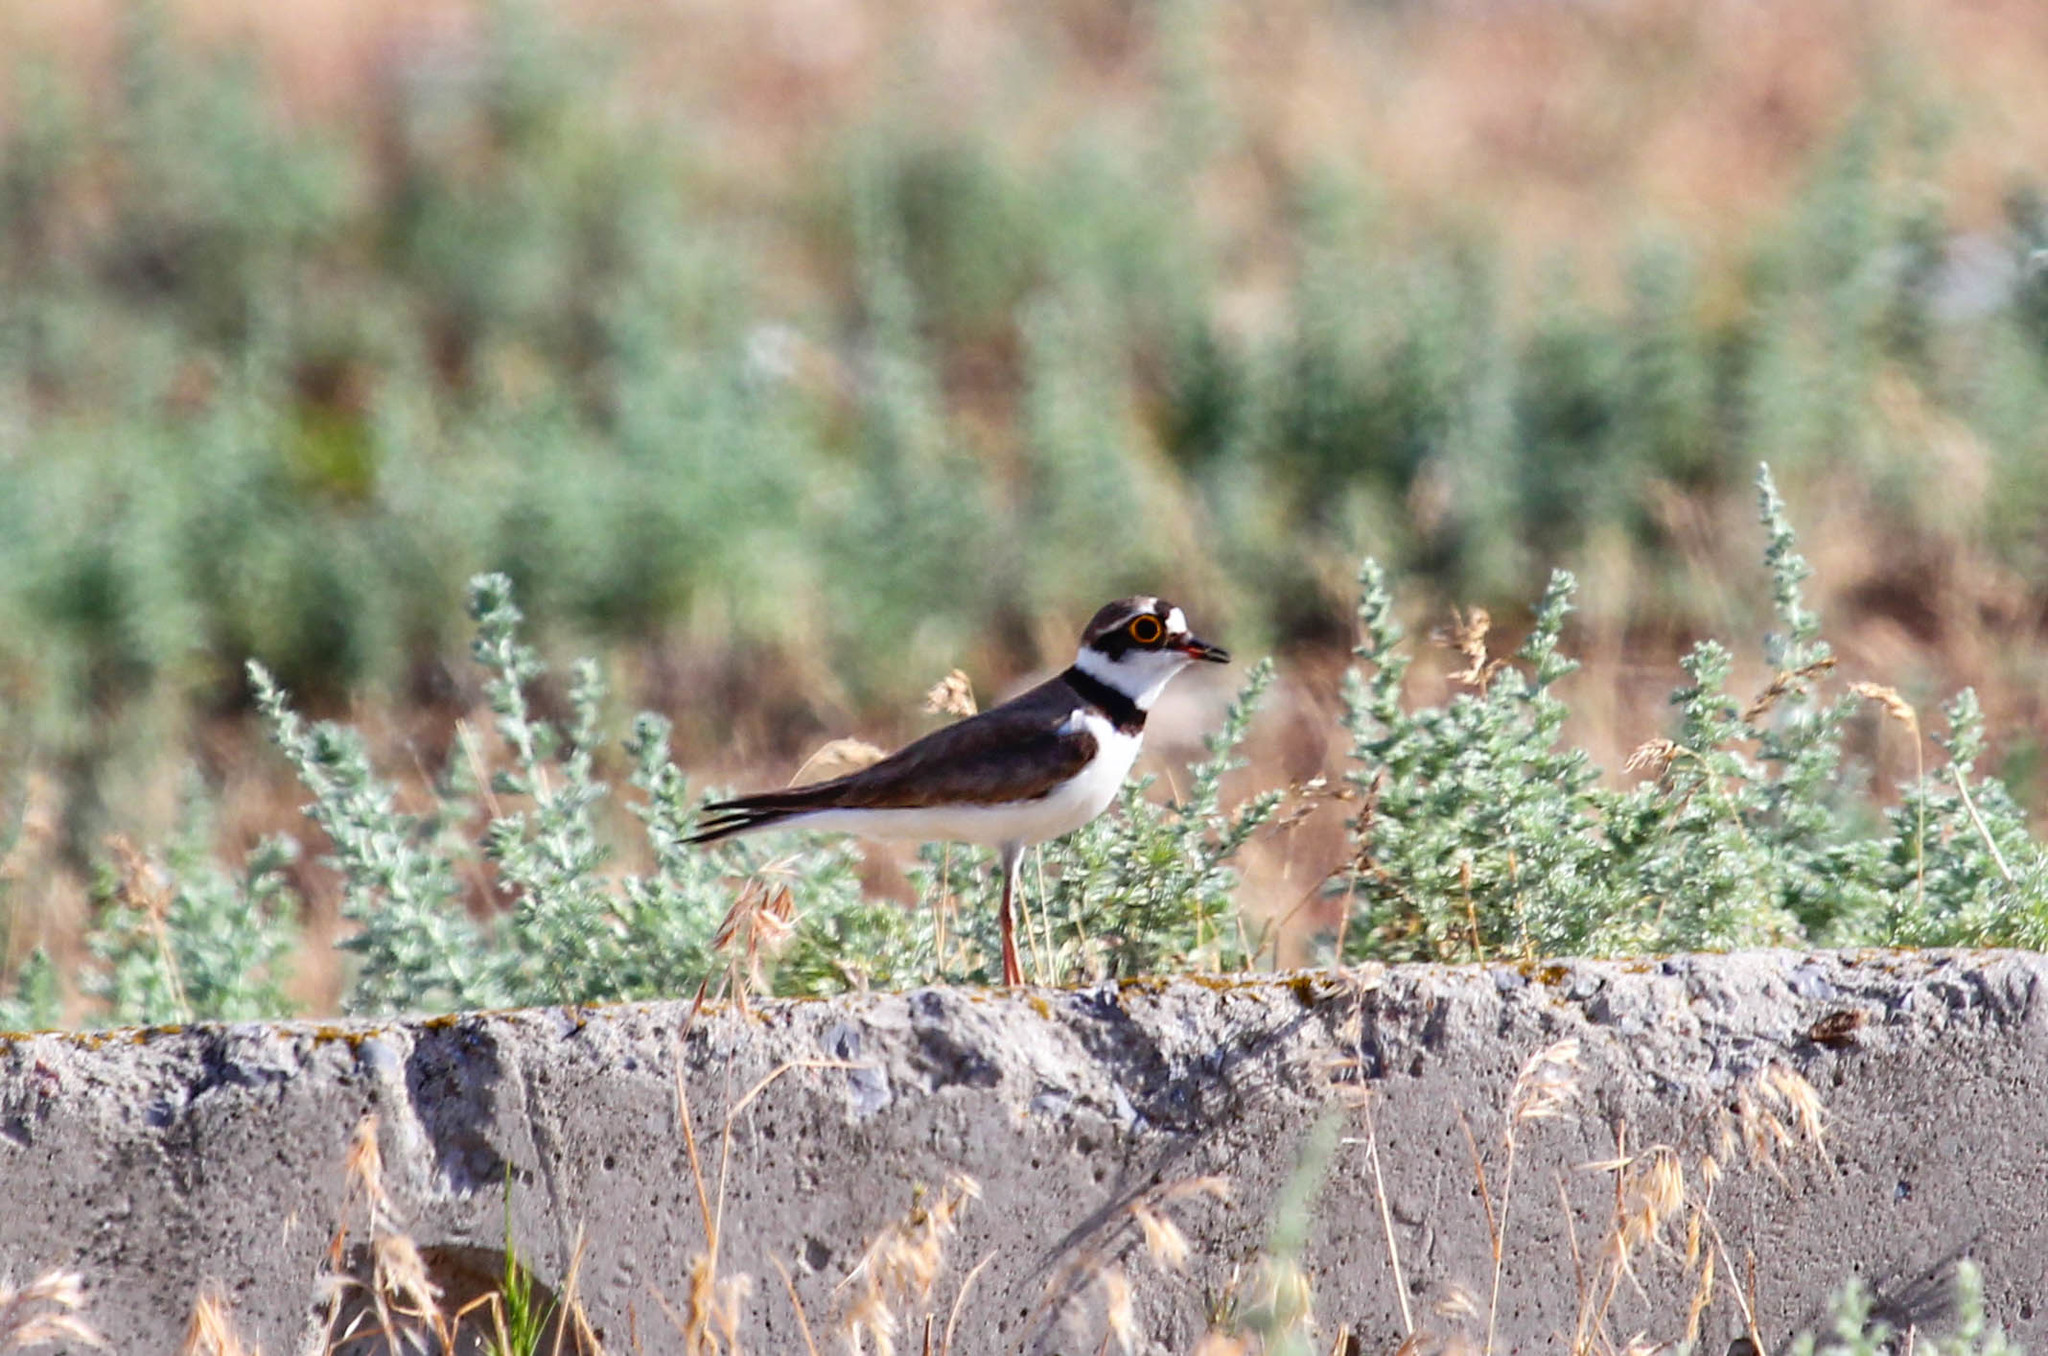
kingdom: Animalia
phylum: Chordata
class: Aves
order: Charadriiformes
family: Charadriidae
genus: Charadrius
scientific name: Charadrius dubius
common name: Little ringed plover
